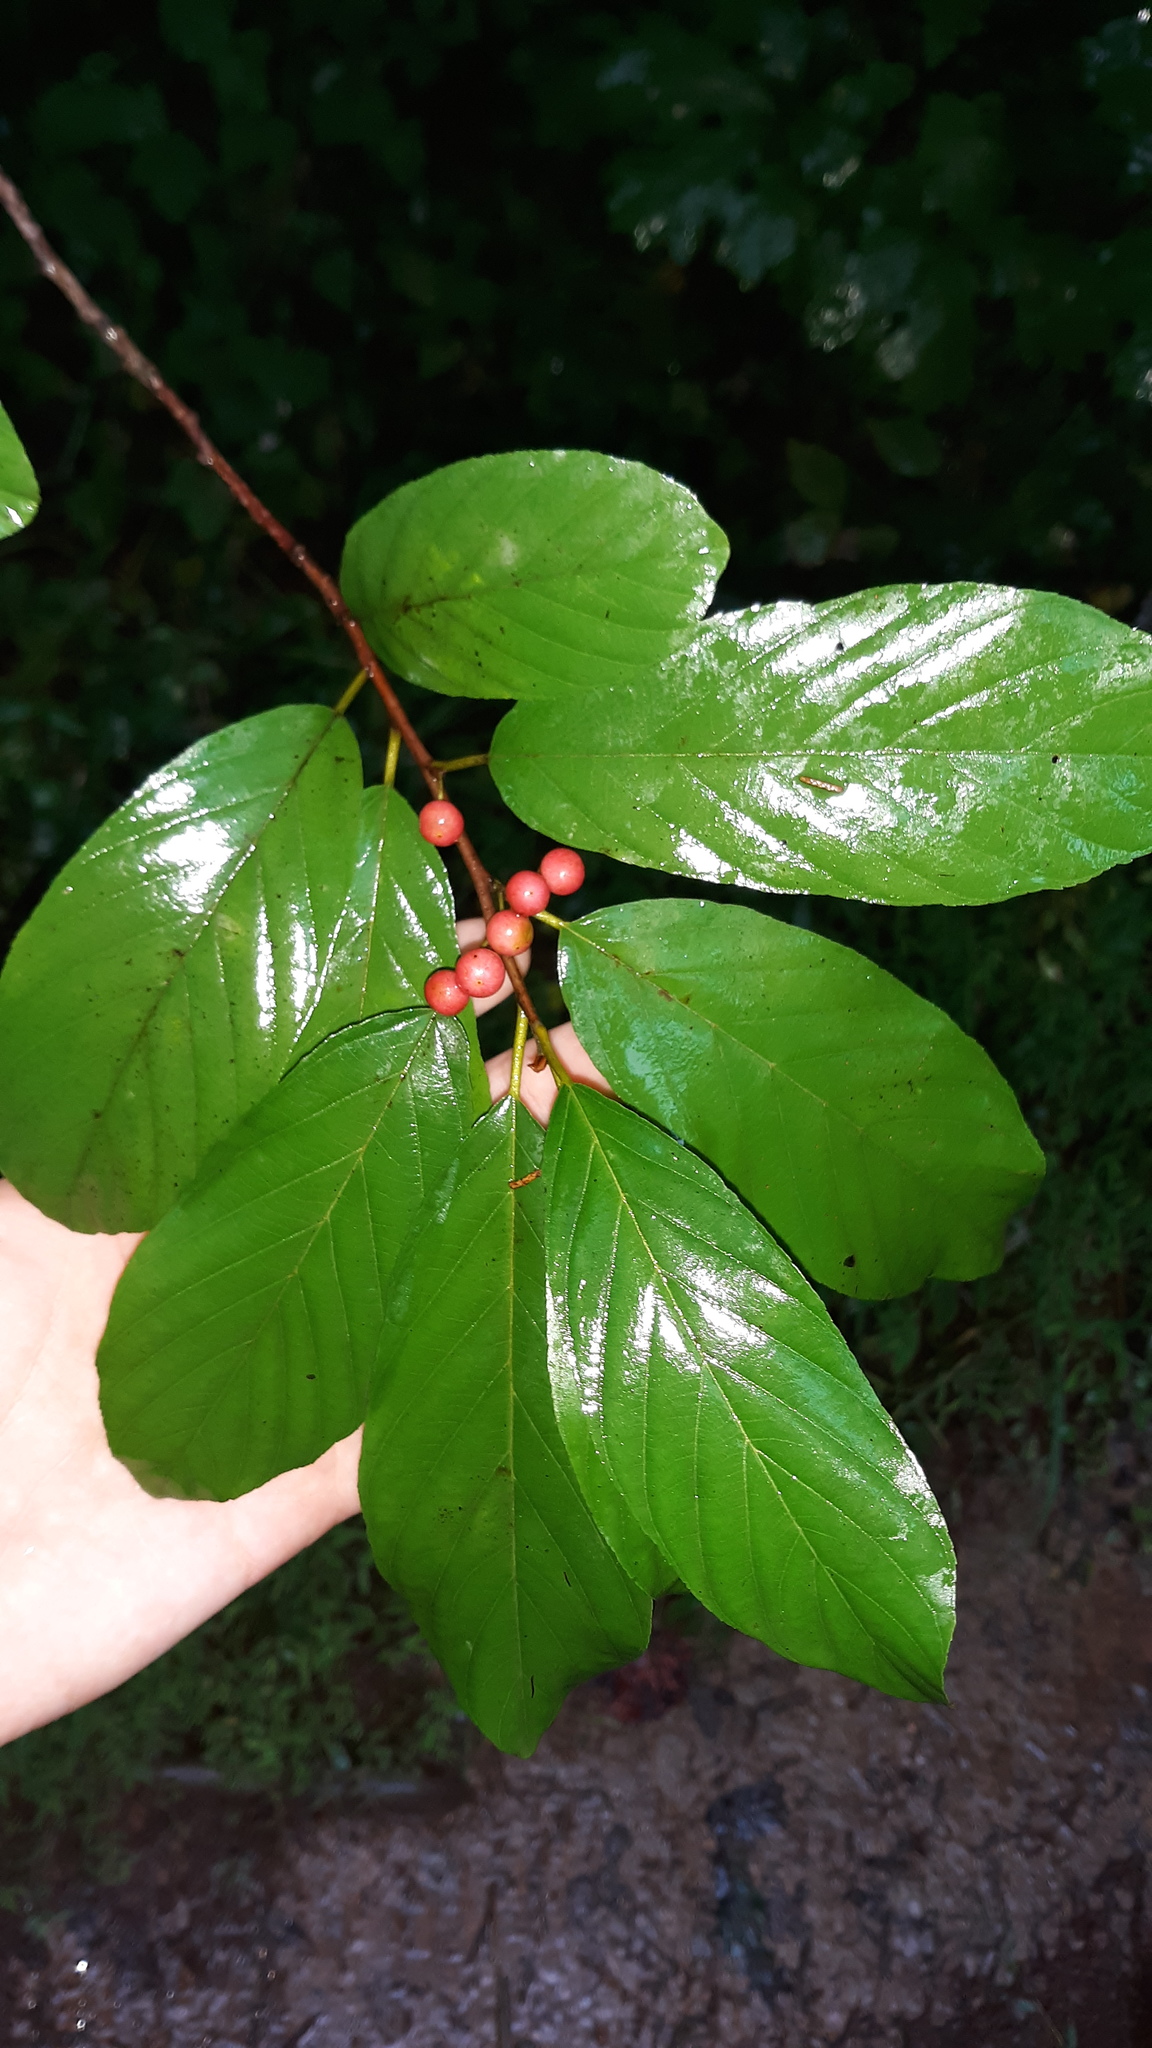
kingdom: Plantae
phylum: Tracheophyta
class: Magnoliopsida
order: Rosales
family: Rhamnaceae
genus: Frangula
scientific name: Frangula caroliniana
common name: Carolina buckthorn
